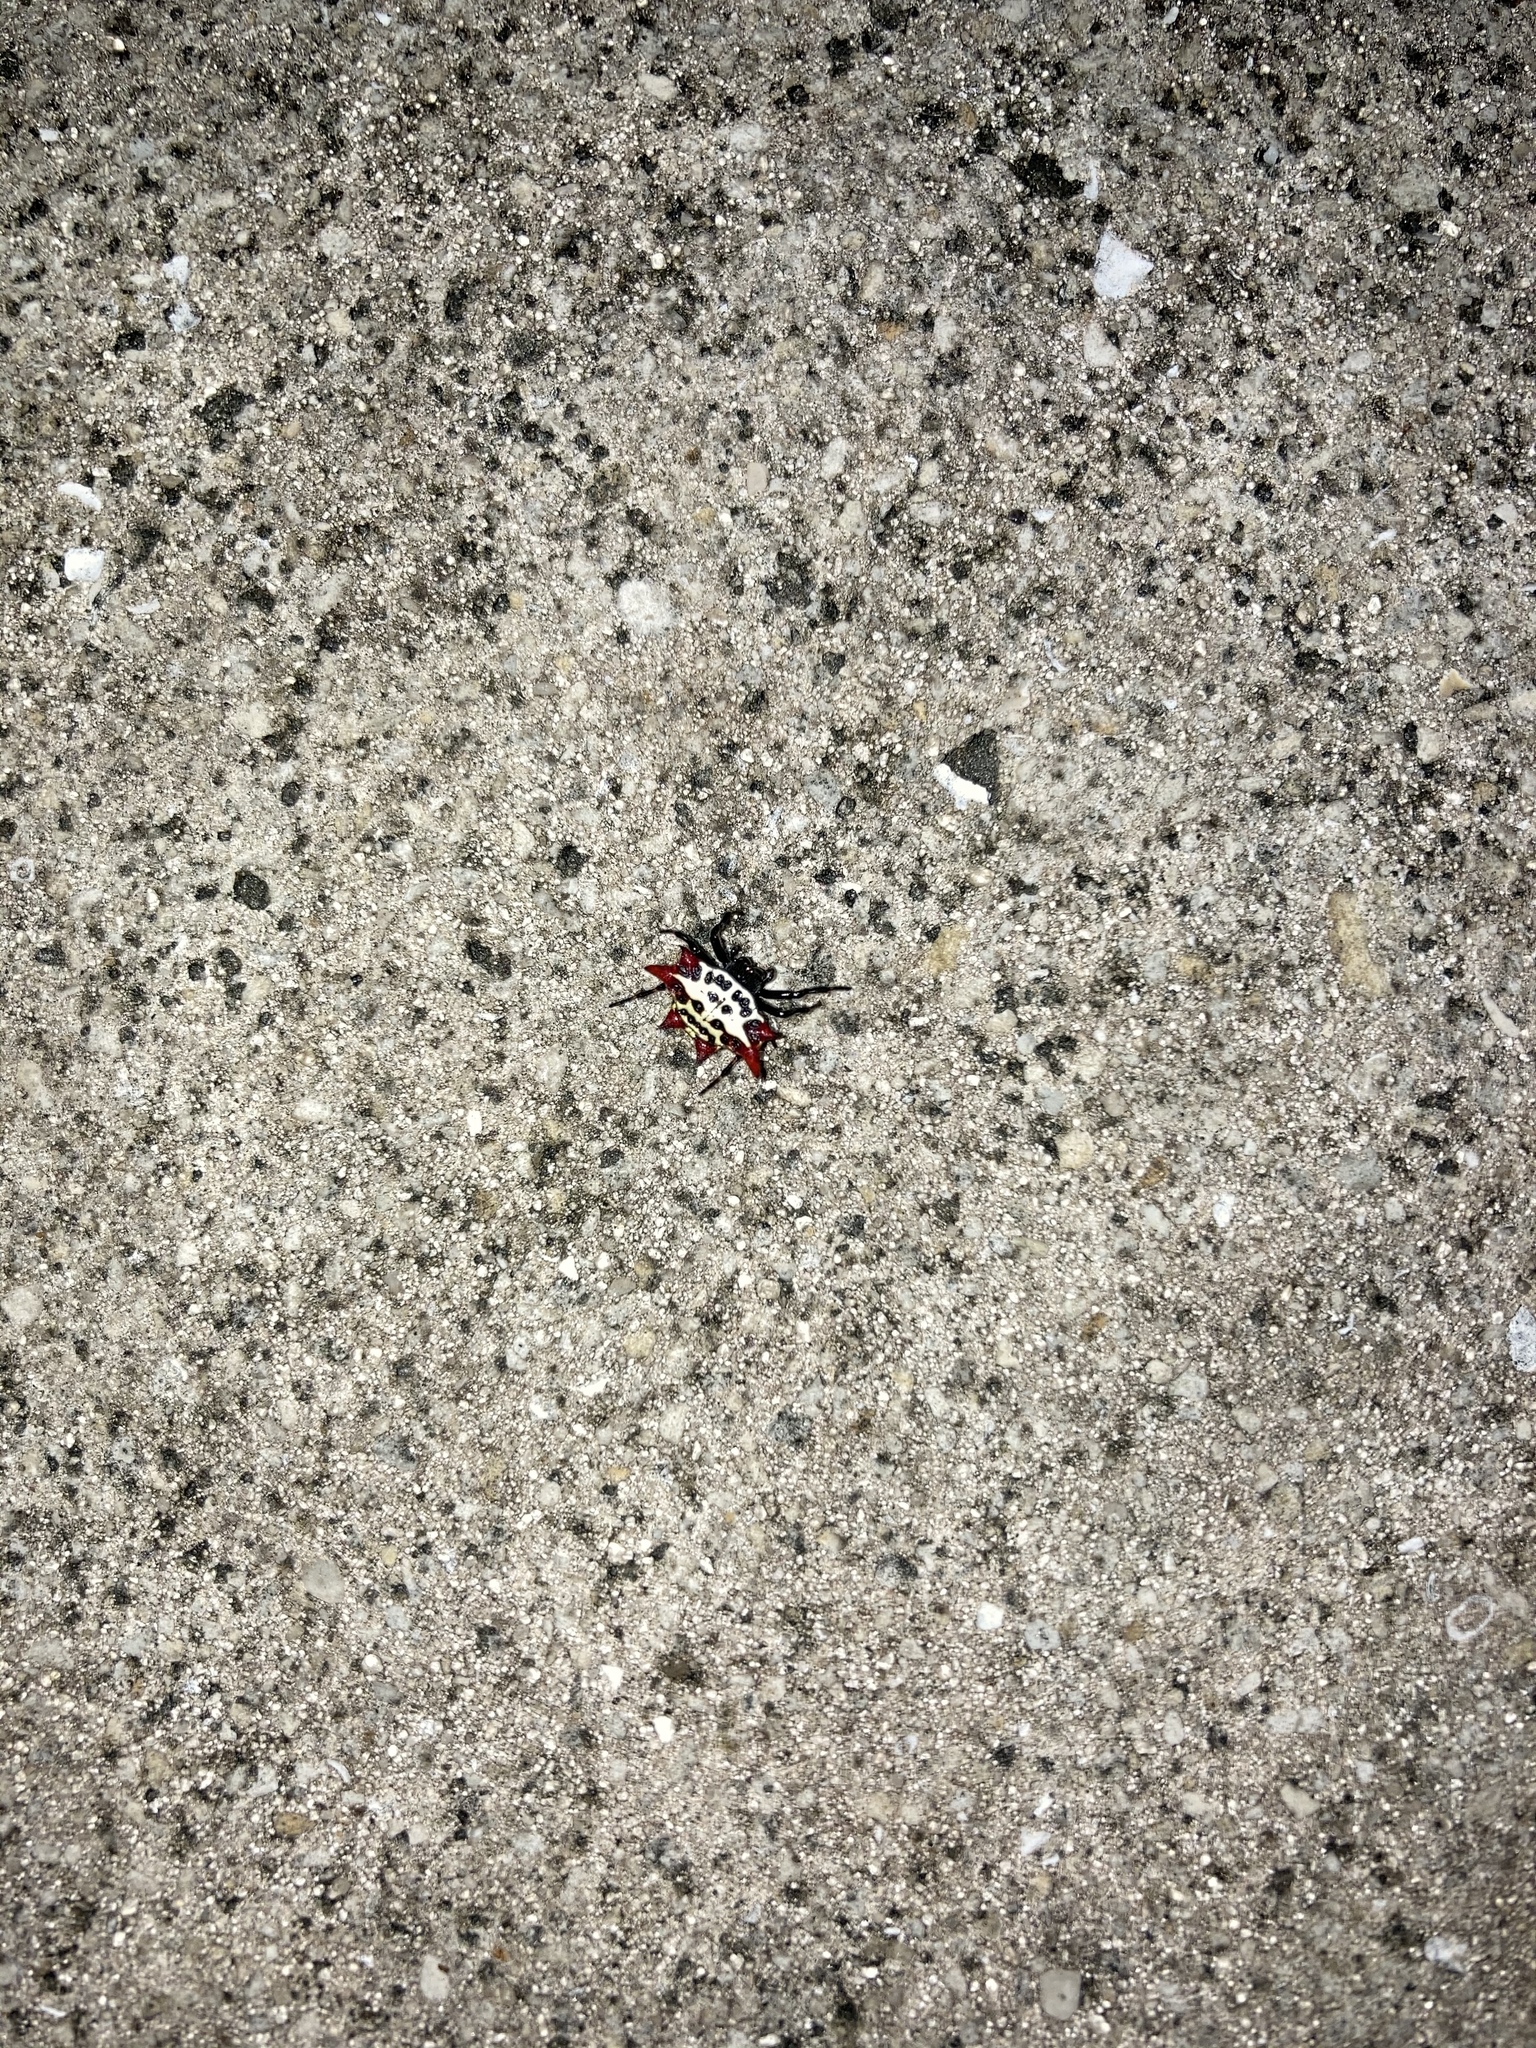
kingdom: Animalia
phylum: Arthropoda
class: Arachnida
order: Araneae
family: Araneidae
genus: Gasteracantha
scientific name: Gasteracantha cancriformis
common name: Orb weavers
